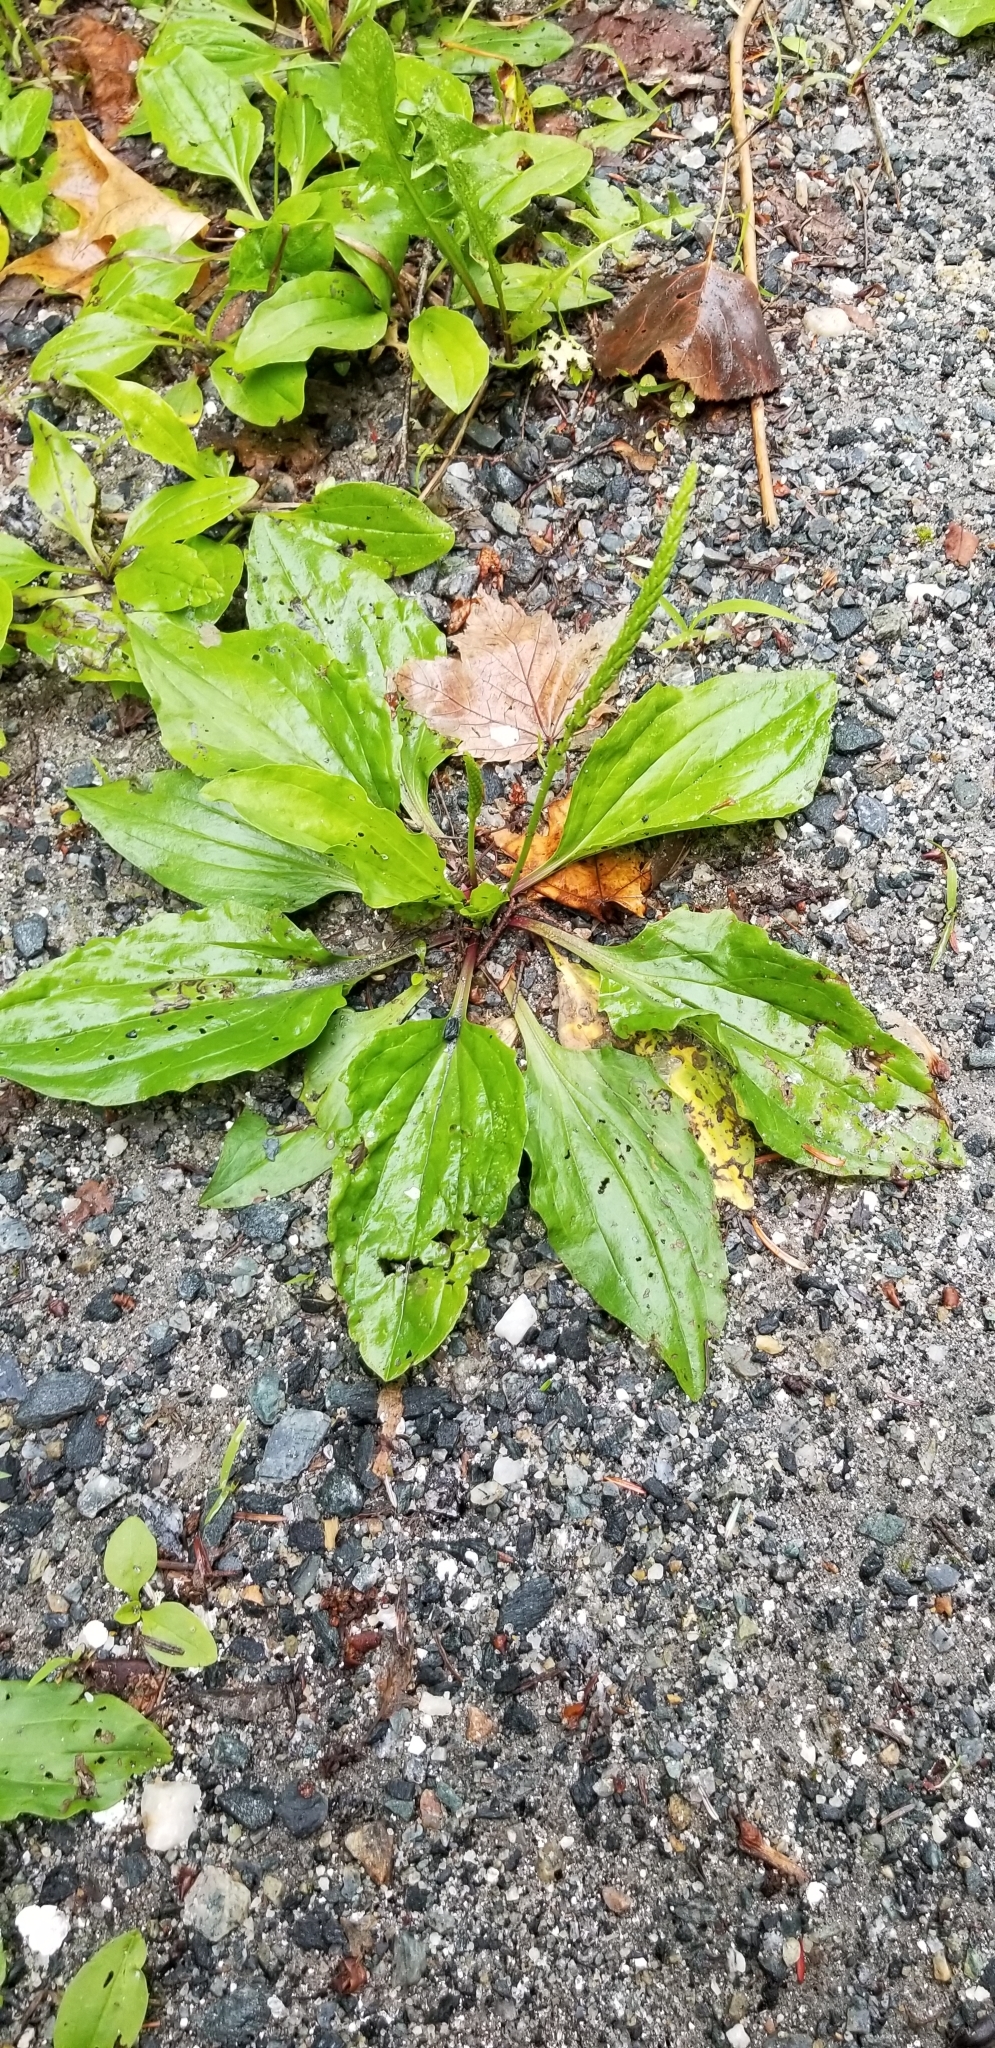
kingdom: Plantae
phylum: Tracheophyta
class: Magnoliopsida
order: Lamiales
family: Plantaginaceae
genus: Plantago
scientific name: Plantago rugelii
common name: American plantain
